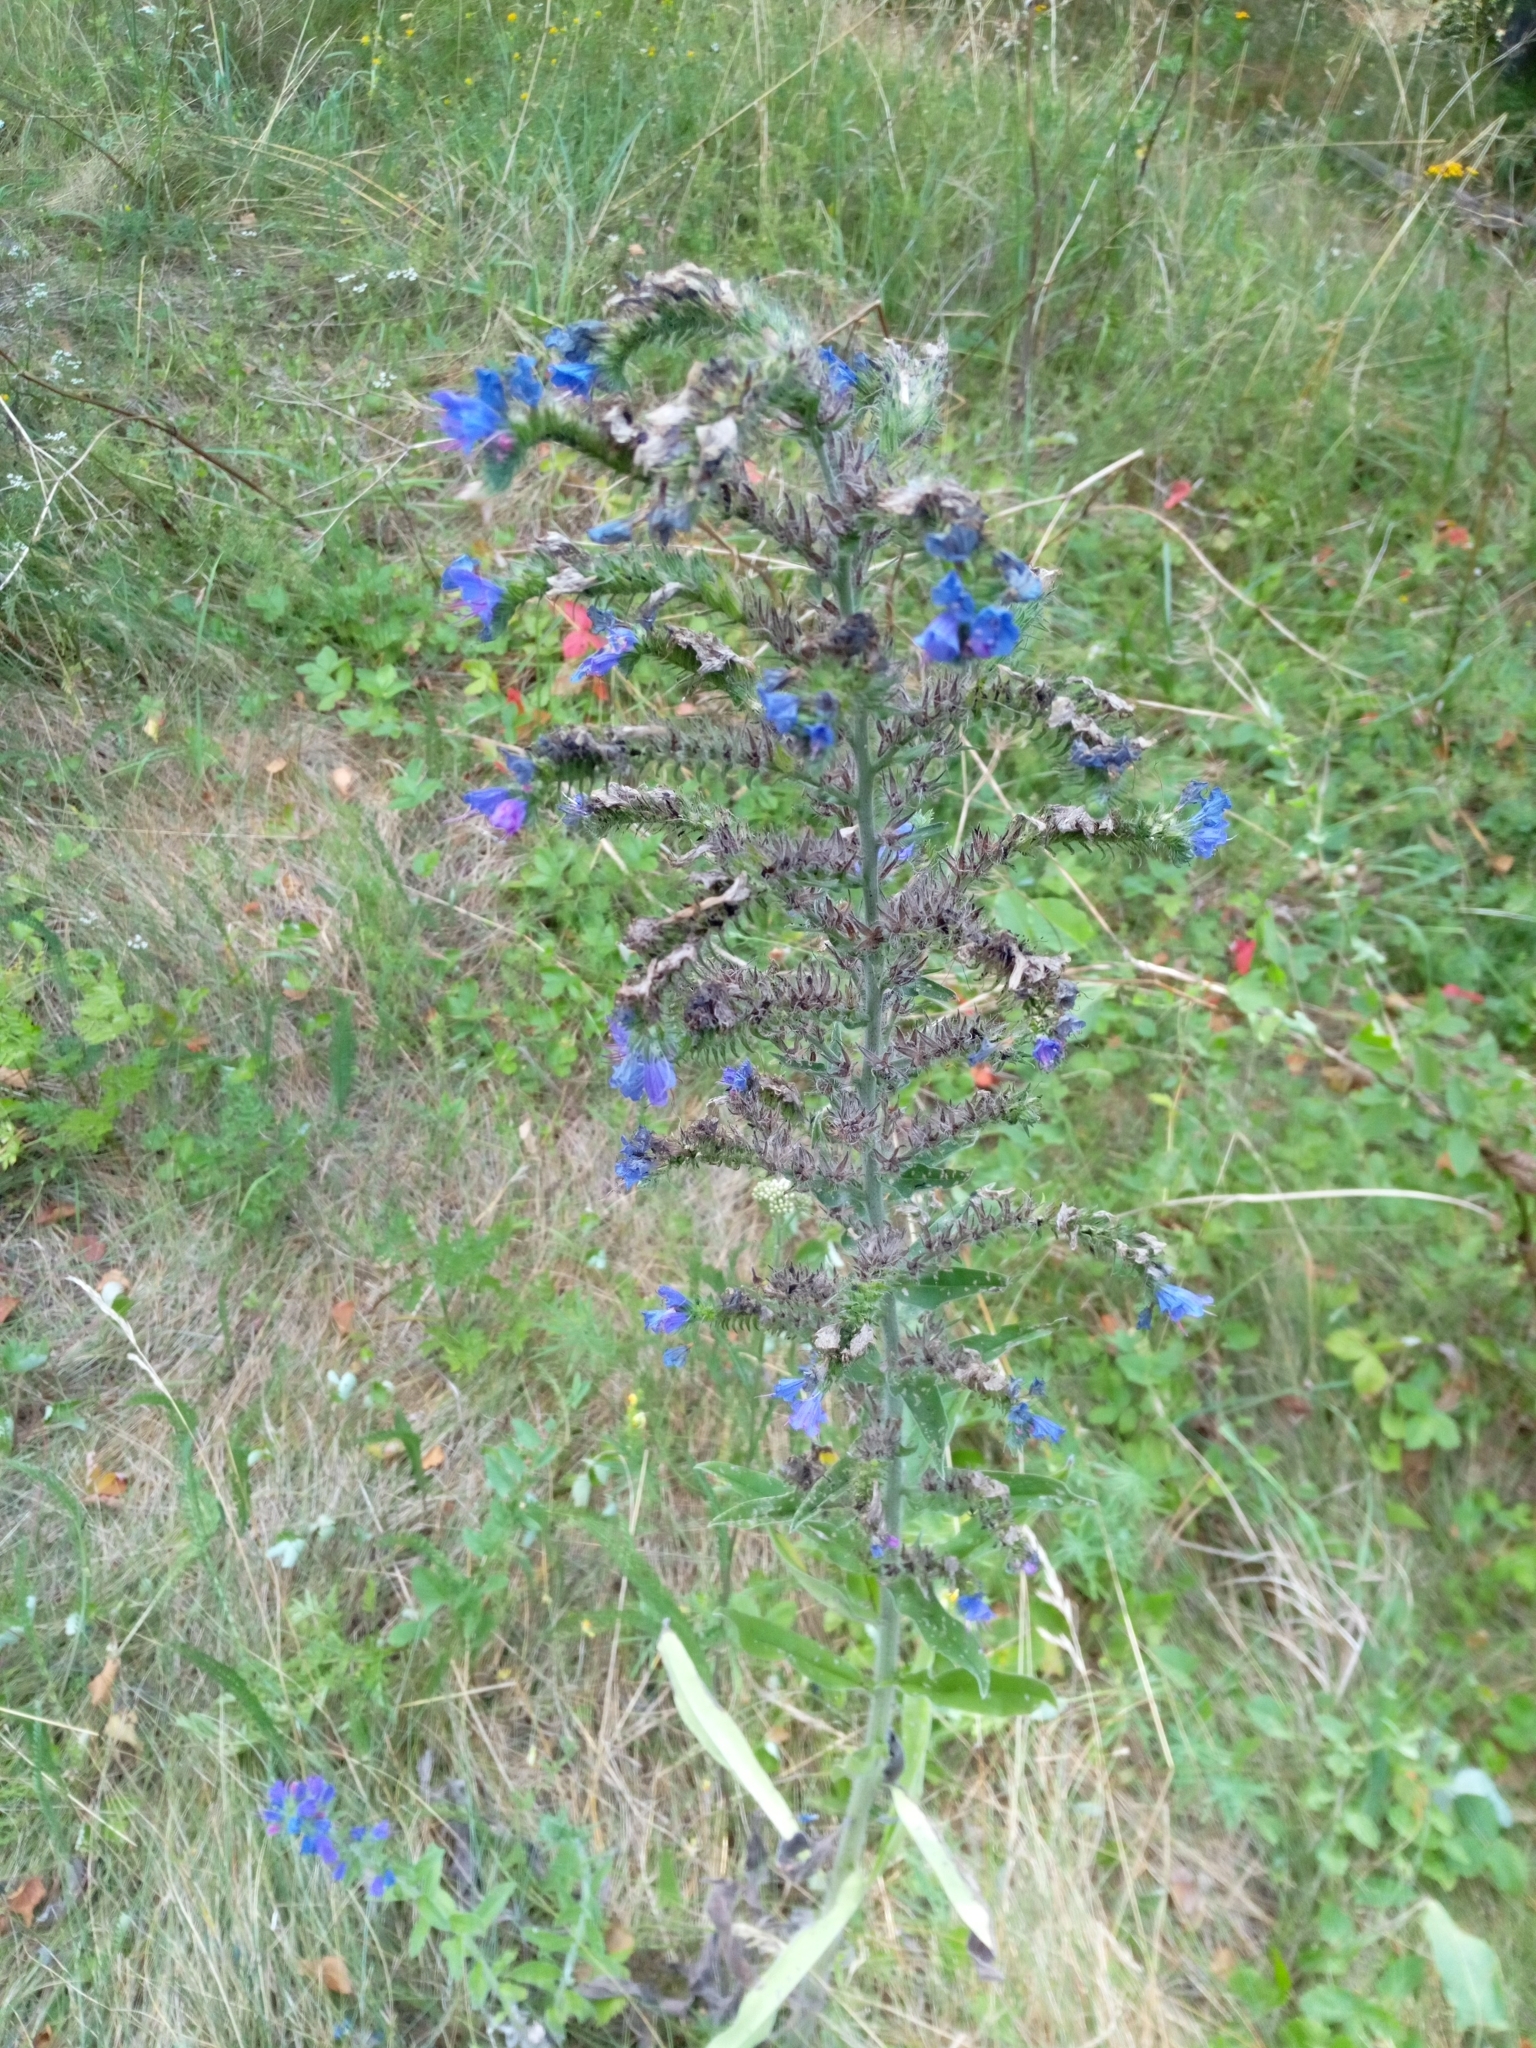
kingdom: Plantae
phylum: Tracheophyta
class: Magnoliopsida
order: Boraginales
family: Boraginaceae
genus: Echium
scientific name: Echium vulgare
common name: Common viper's bugloss
